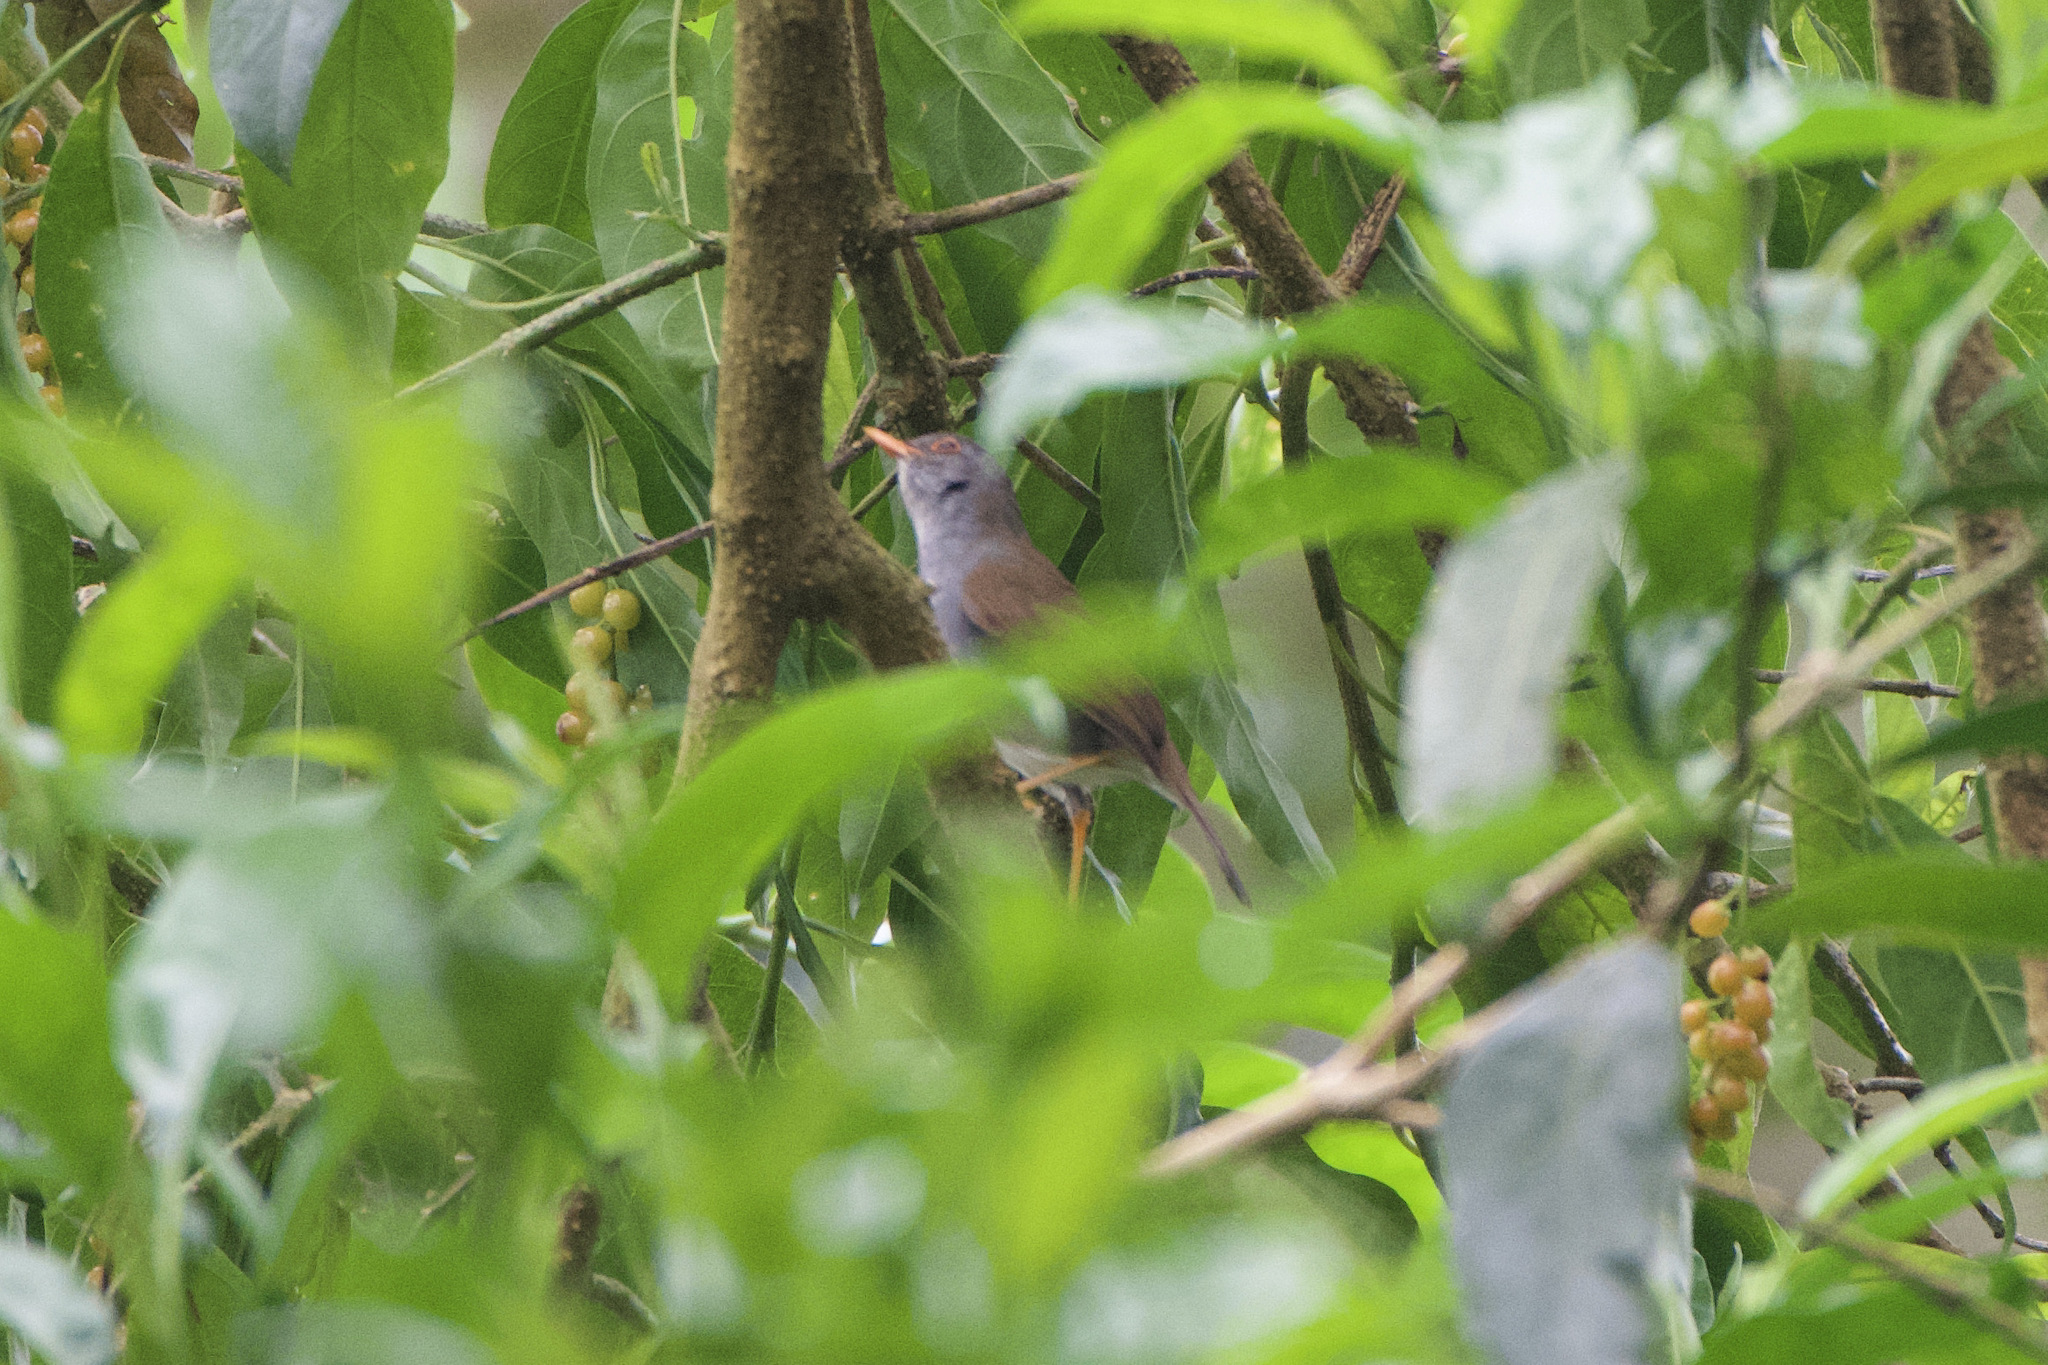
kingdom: Animalia
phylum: Chordata
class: Aves
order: Passeriformes
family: Turdidae
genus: Catharus
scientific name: Catharus aurantiirostris
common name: Orange-billed nightingale-thrush
